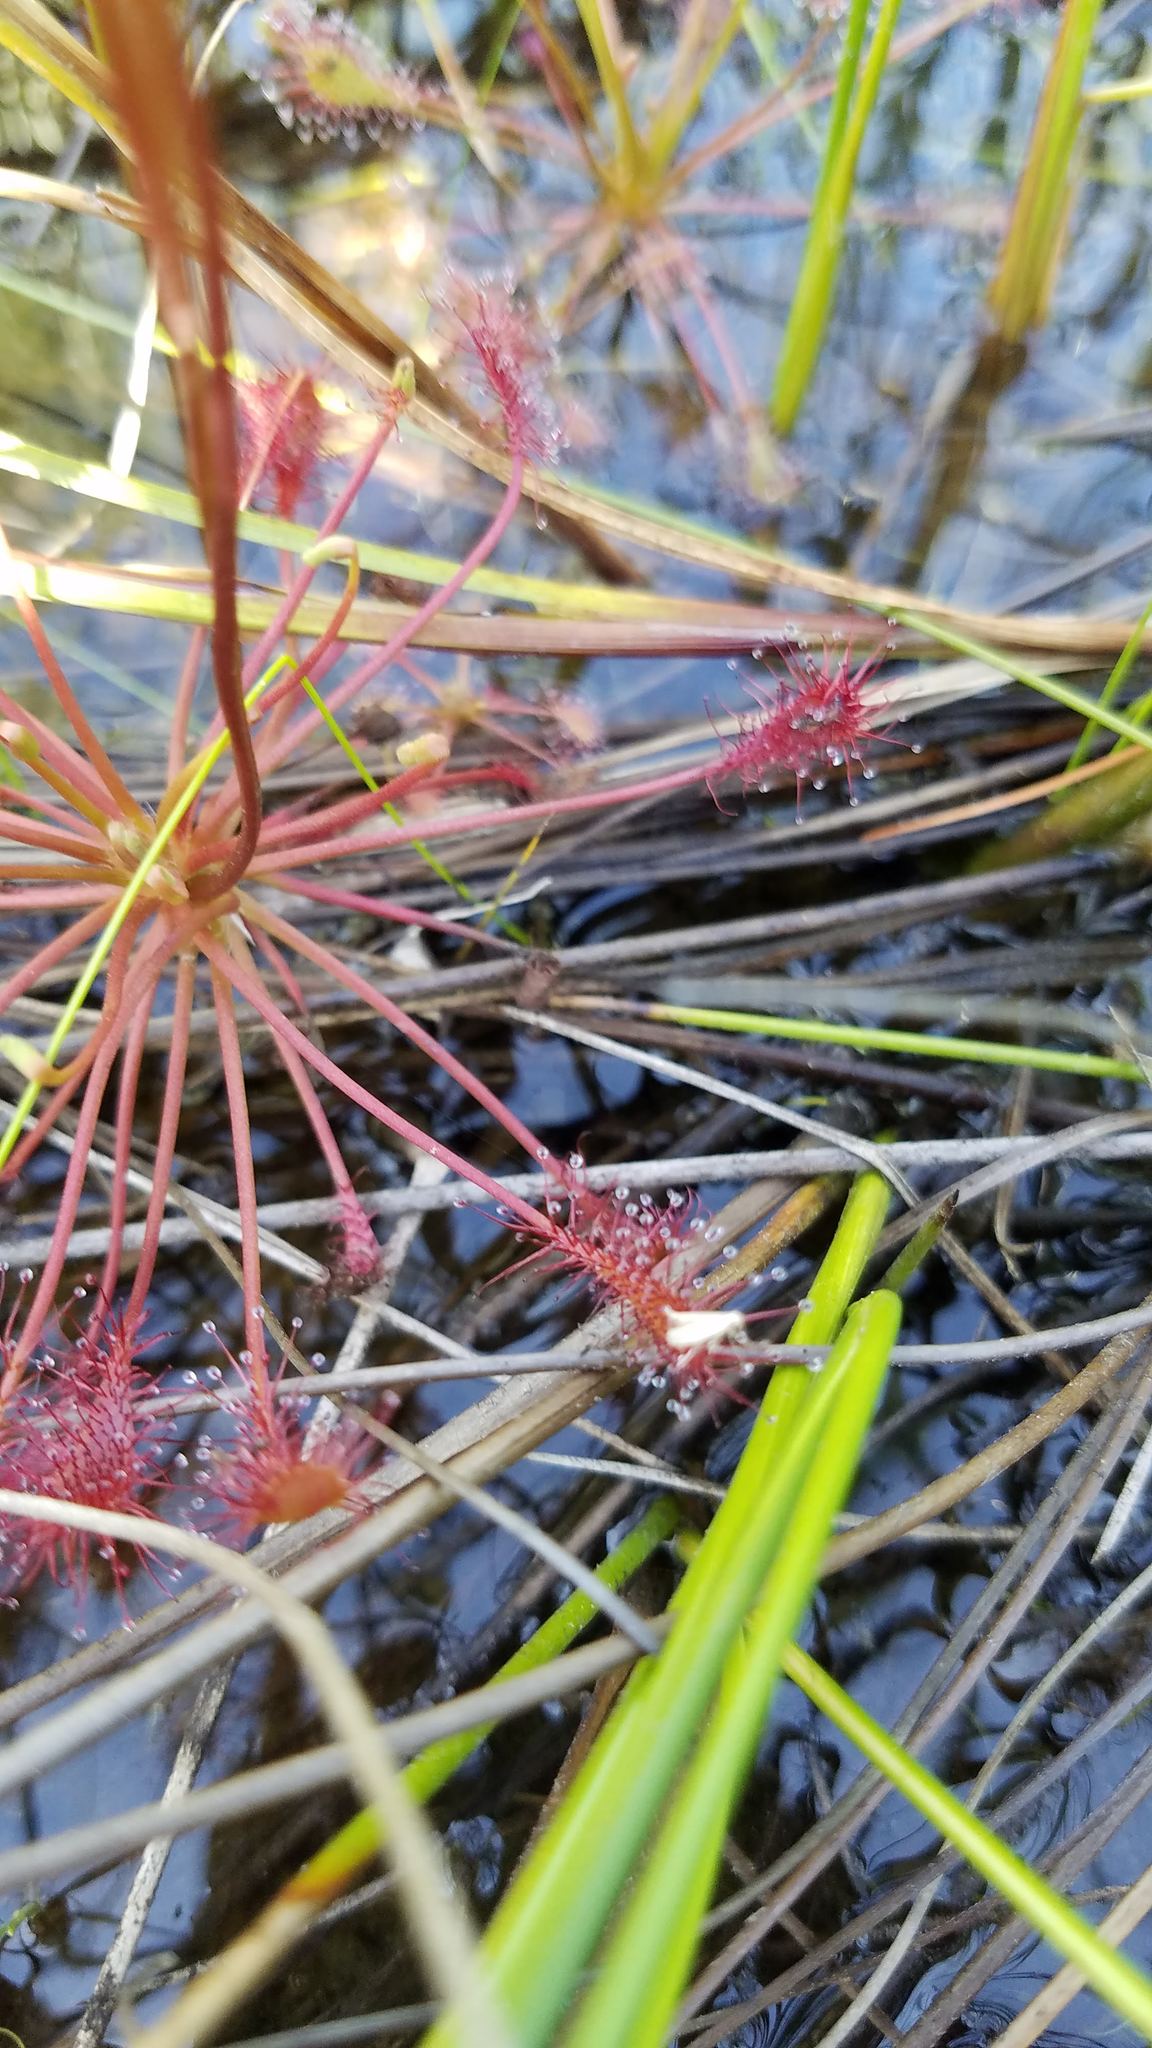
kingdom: Plantae
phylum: Tracheophyta
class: Magnoliopsida
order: Caryophyllales
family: Droseraceae
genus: Drosera
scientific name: Drosera intermedia
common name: Oblong-leaved sundew
